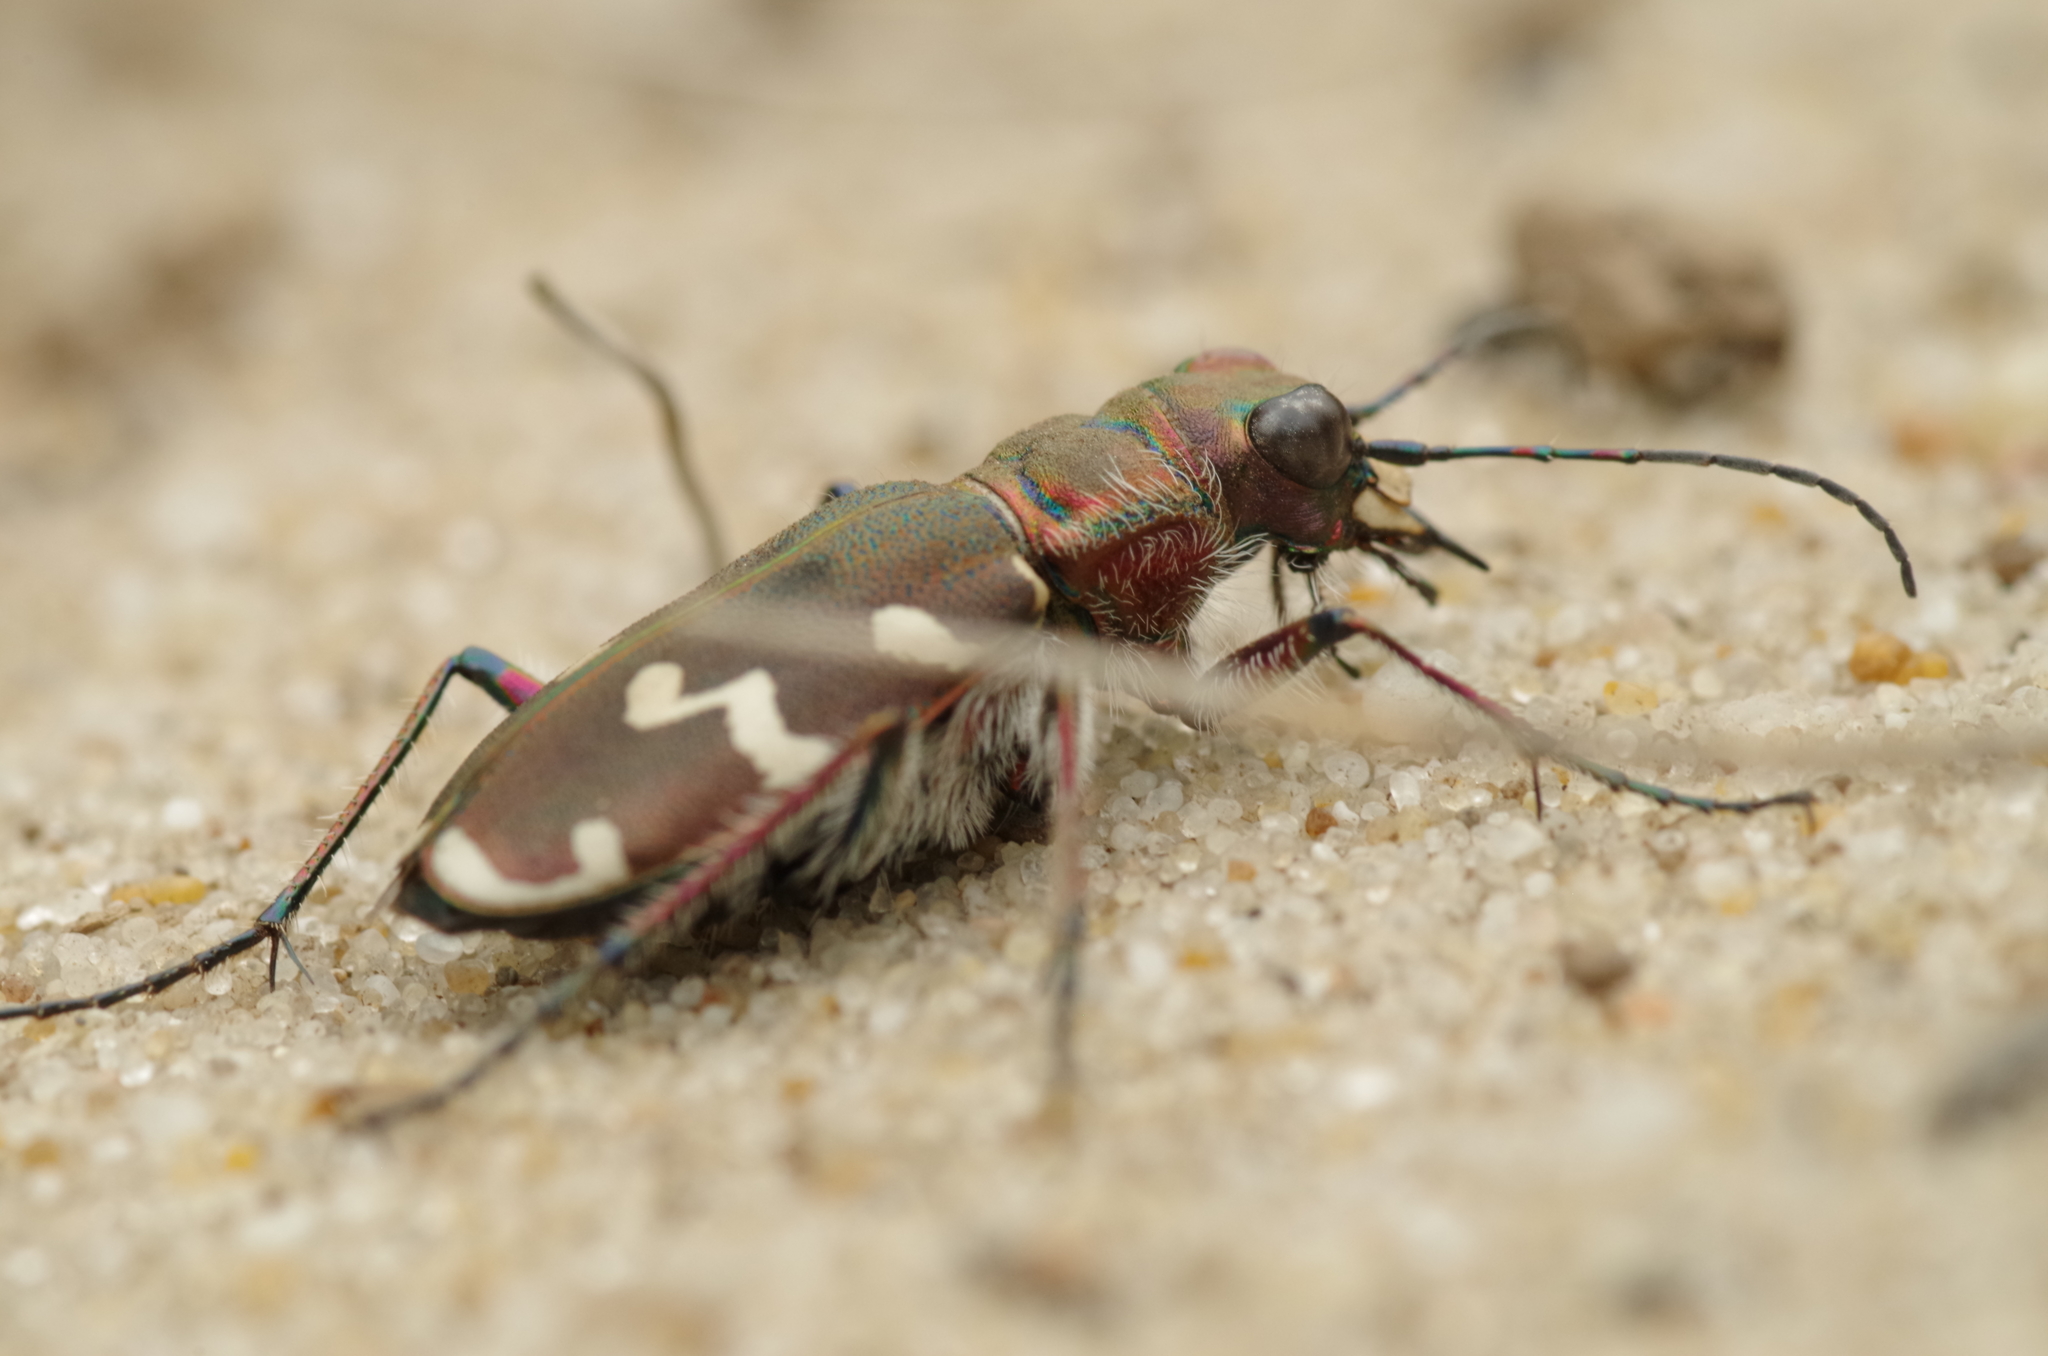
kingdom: Animalia
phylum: Arthropoda
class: Insecta
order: Coleoptera
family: Carabidae
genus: Cicindela
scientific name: Cicindela hybrida
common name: Northern dune tiger beetle
